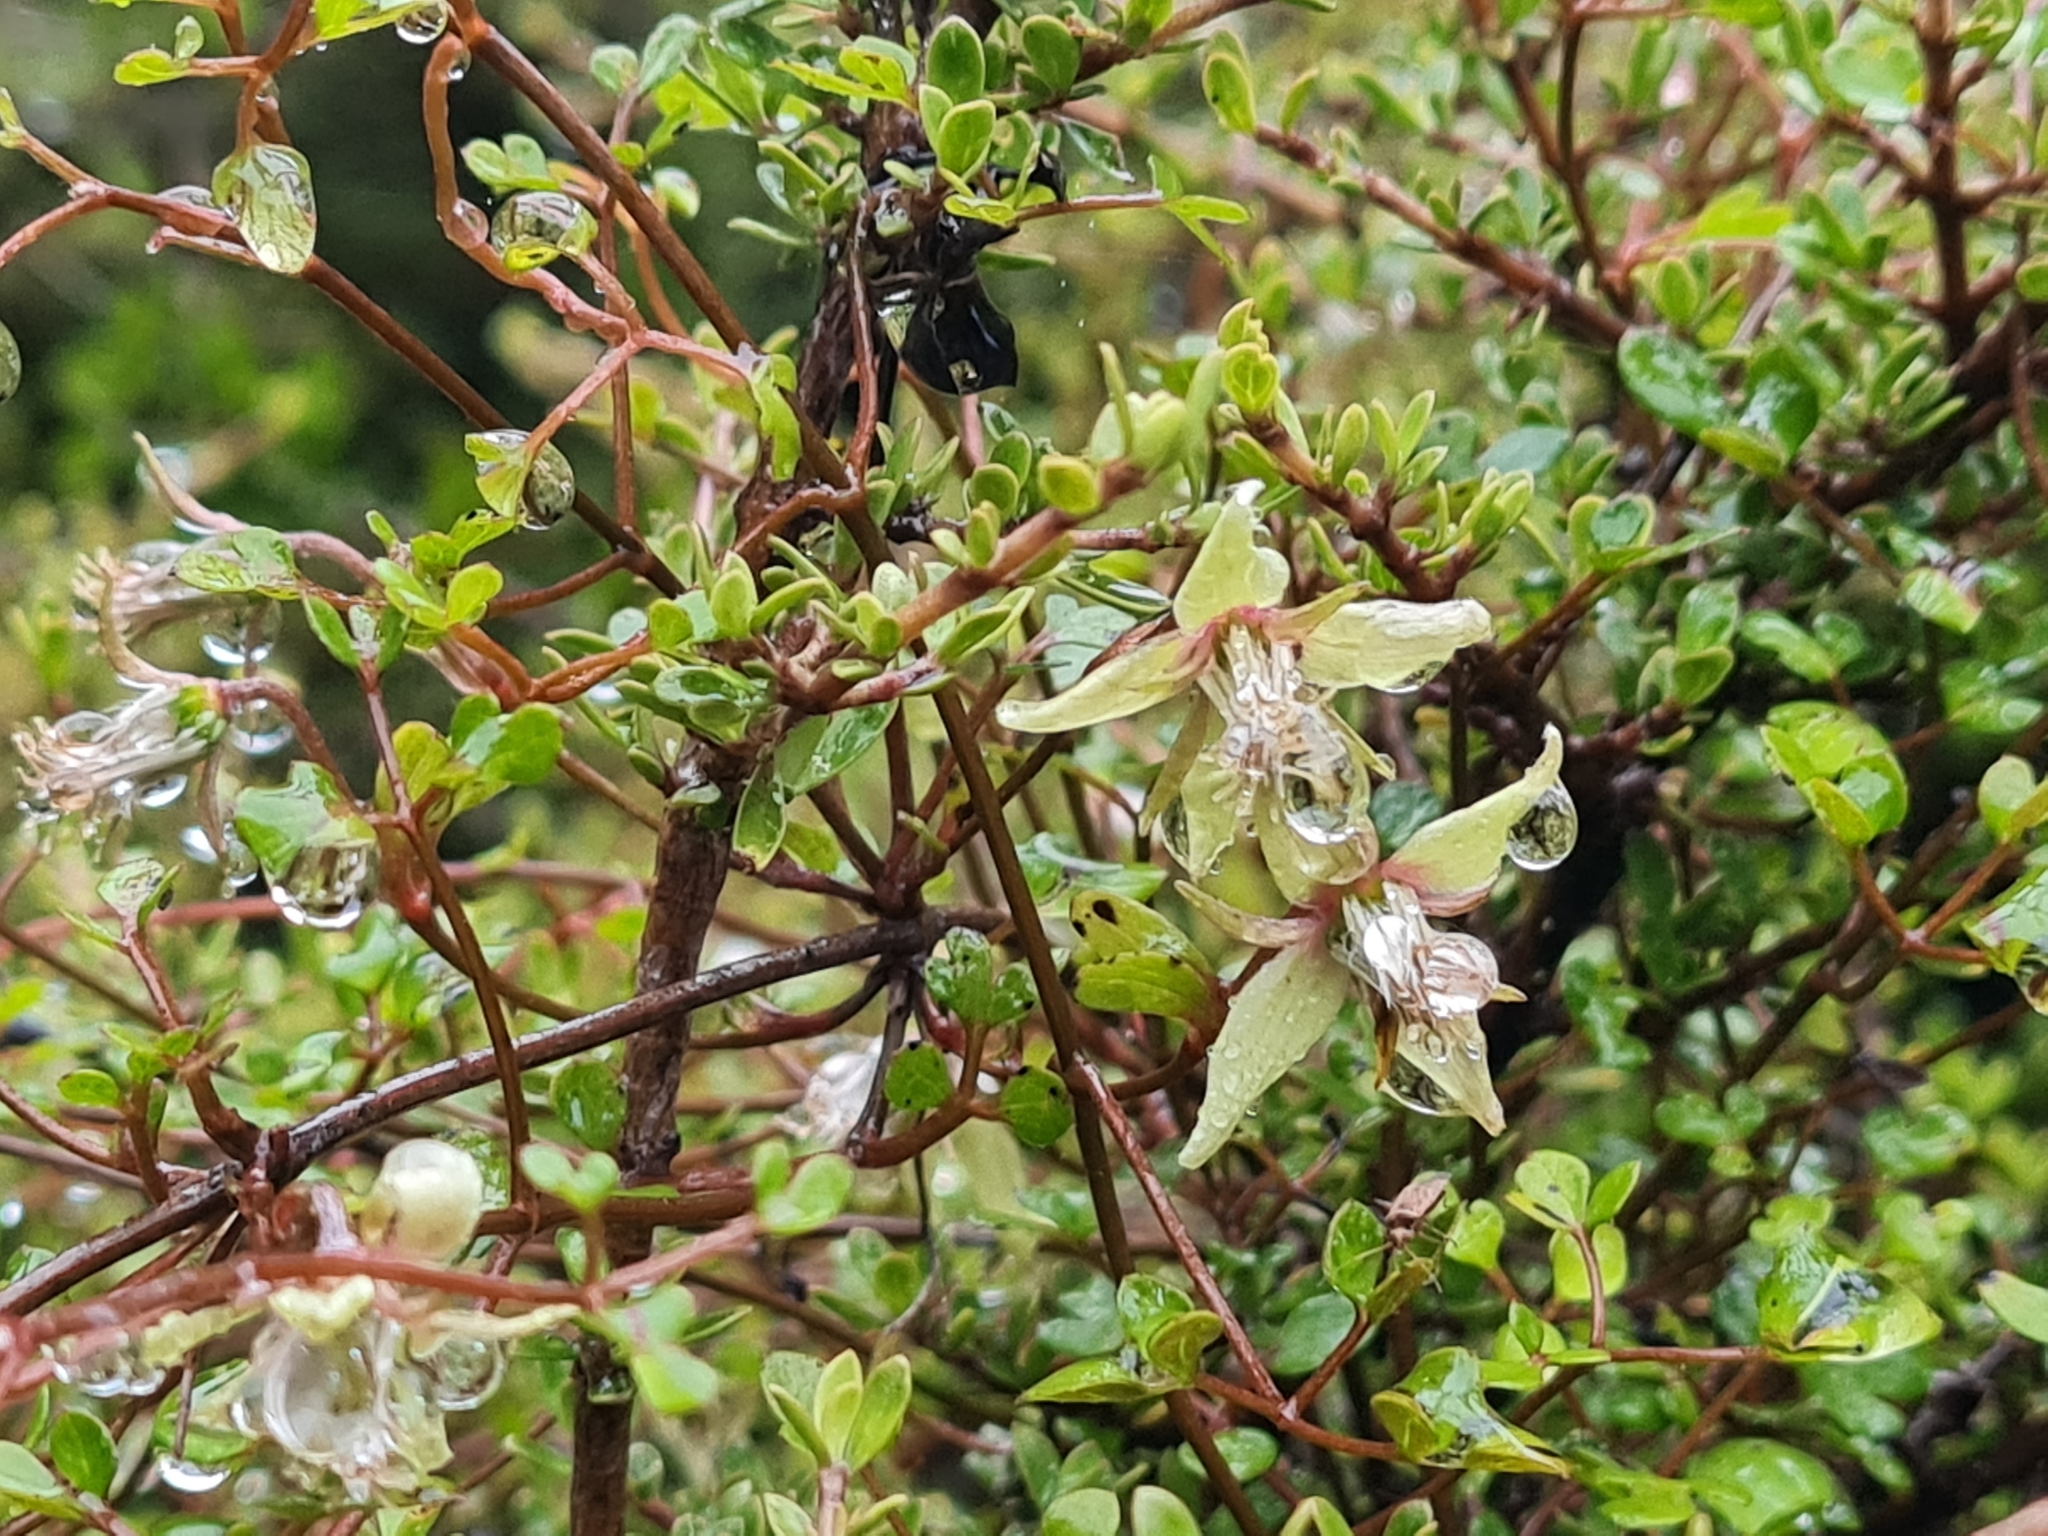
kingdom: Plantae
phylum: Tracheophyta
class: Magnoliopsida
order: Ranunculales
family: Ranunculaceae
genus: Clematis
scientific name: Clematis marata
